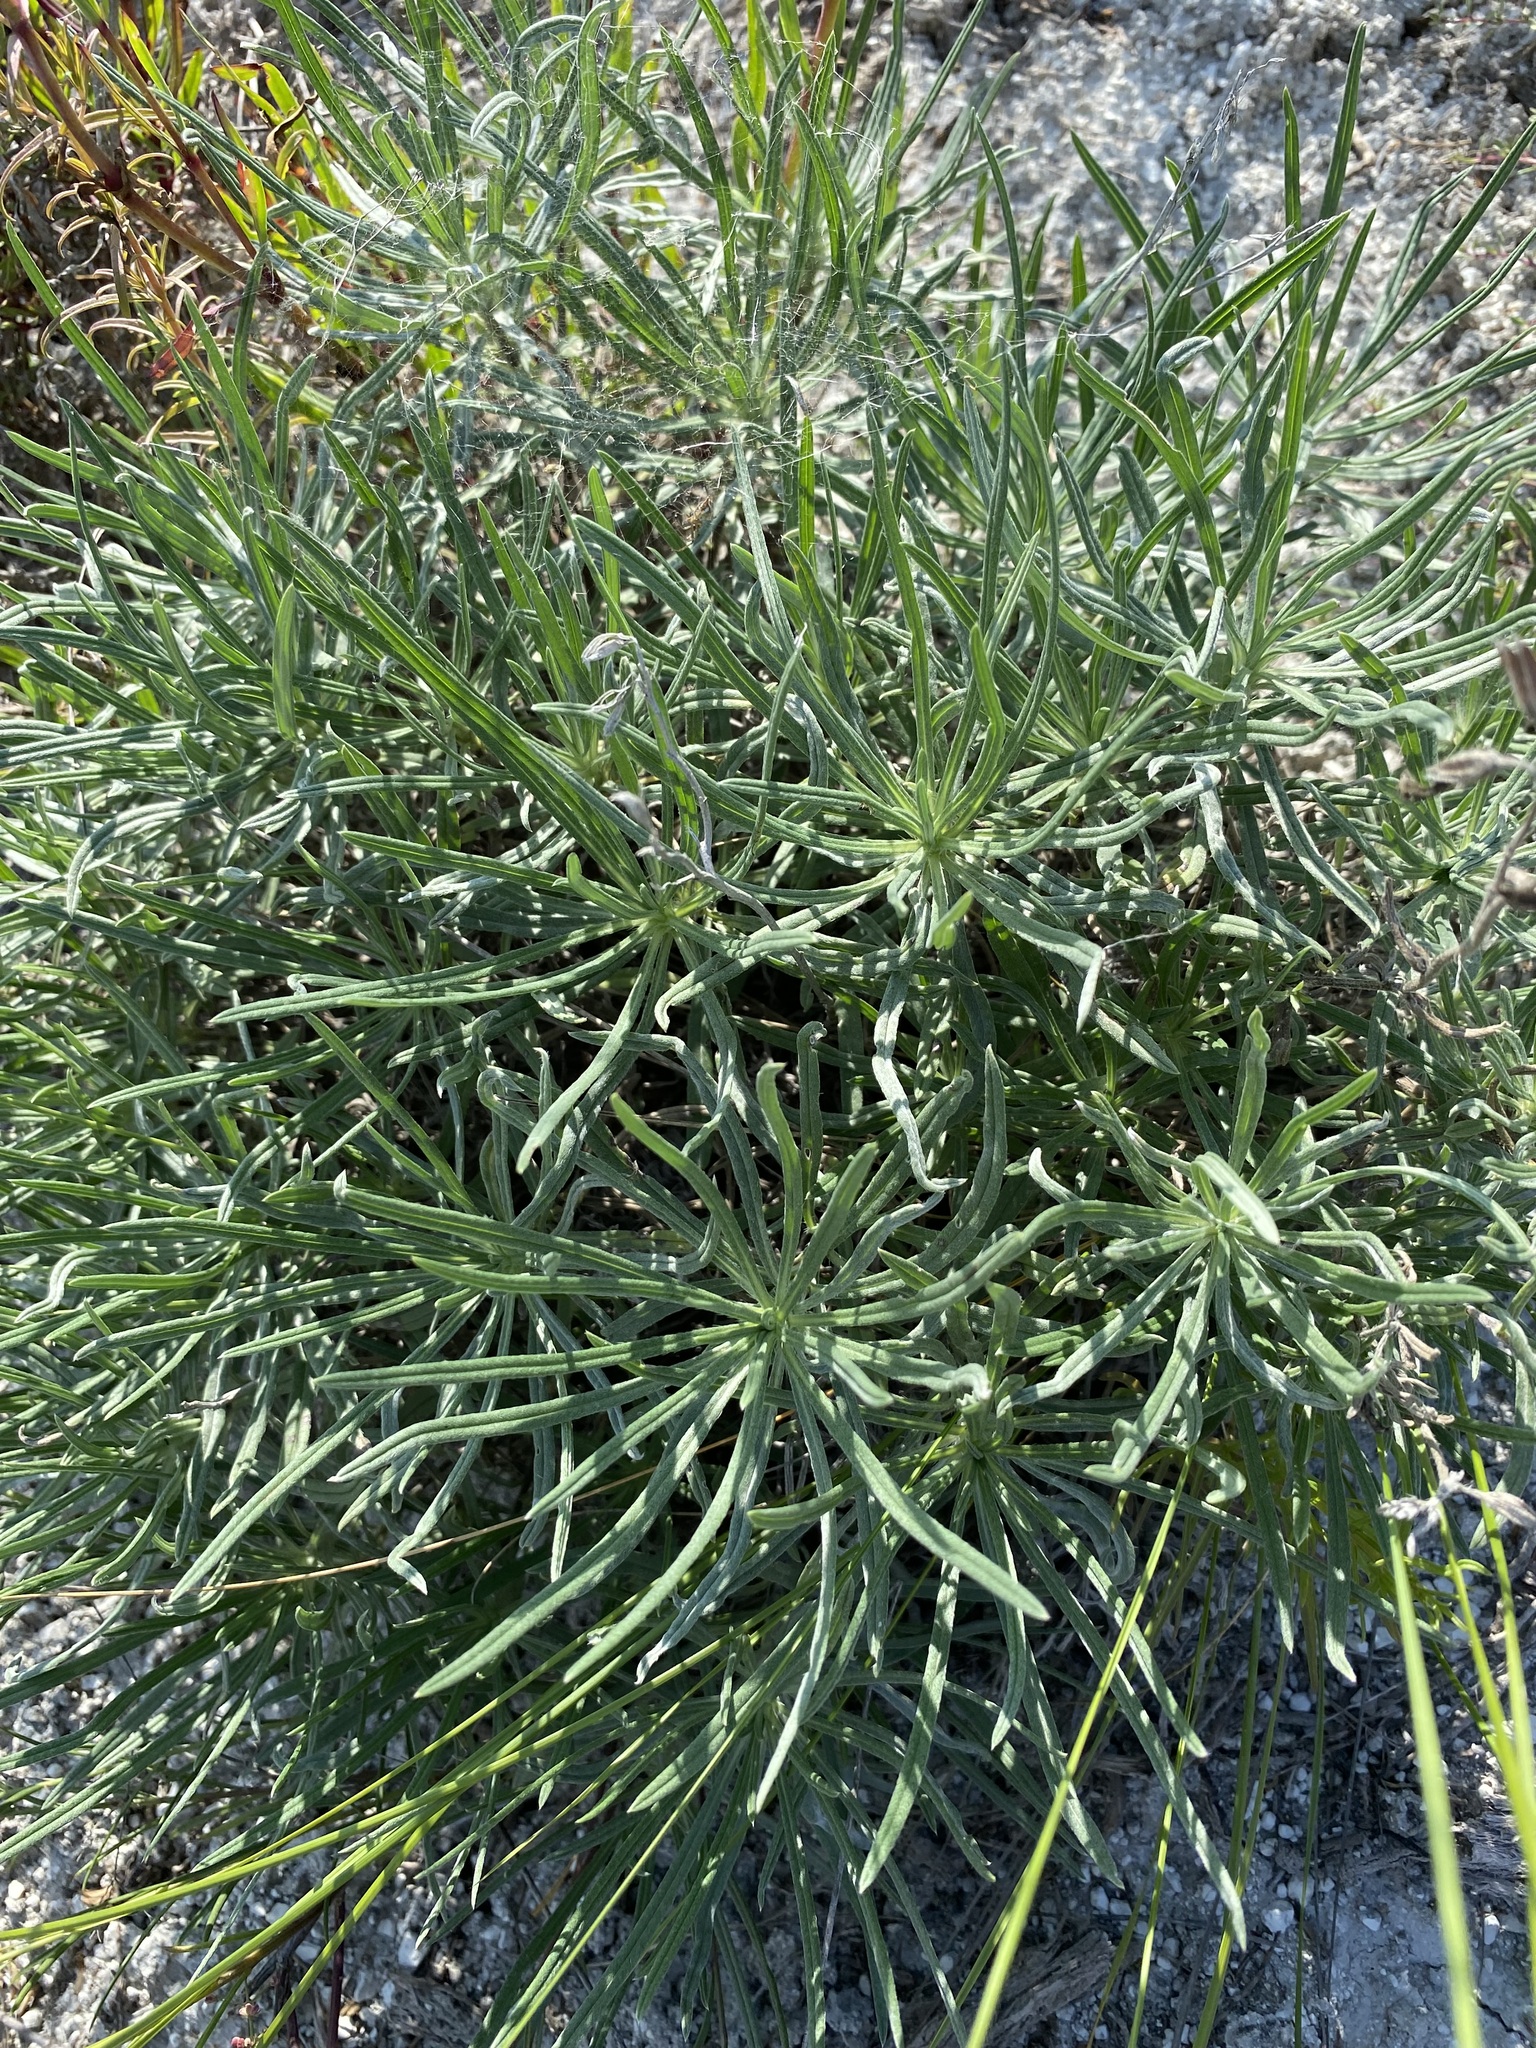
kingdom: Plantae
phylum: Tracheophyta
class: Magnoliopsida
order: Boraginales
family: Boraginaceae
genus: Onosma
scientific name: Onosma simplicissima
